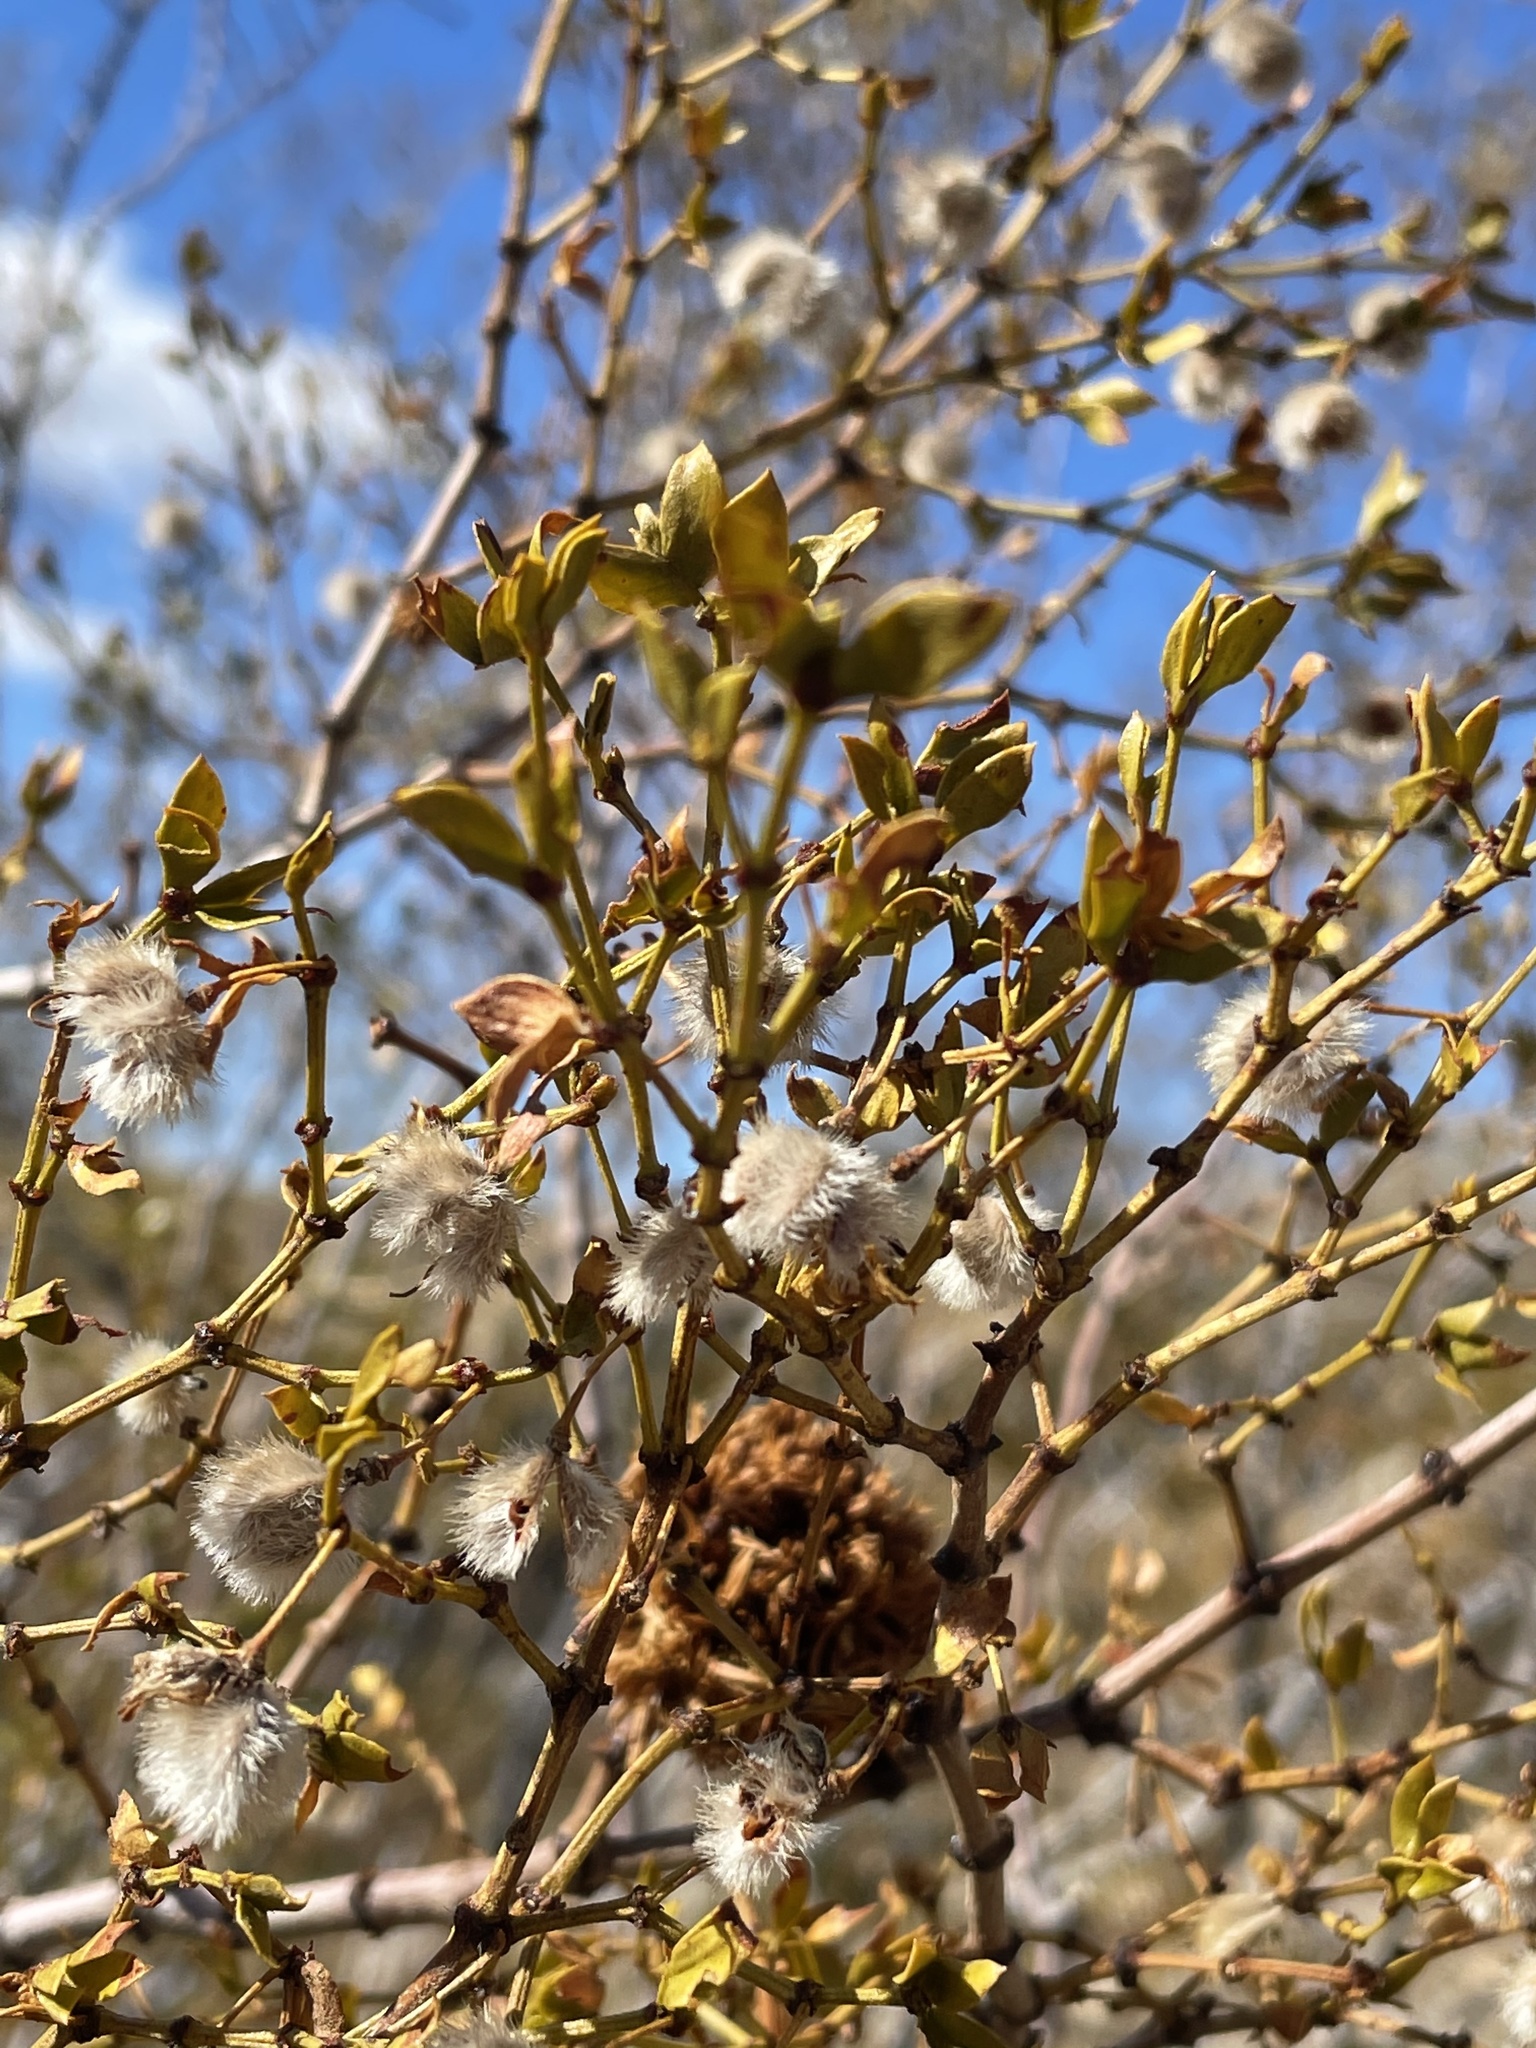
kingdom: Plantae
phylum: Tracheophyta
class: Magnoliopsida
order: Zygophyllales
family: Zygophyllaceae
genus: Larrea
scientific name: Larrea tridentata
